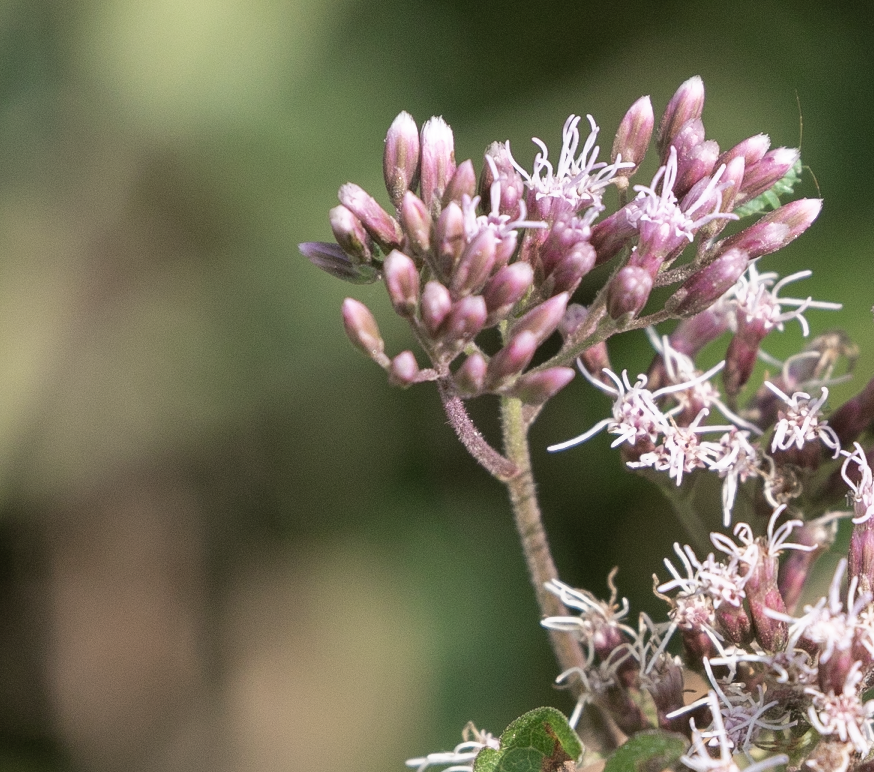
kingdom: Plantae
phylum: Tracheophyta
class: Magnoliopsida
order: Asterales
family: Asteraceae
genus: Eupatorium
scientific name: Eupatorium cannabinum
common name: Hemp-agrimony
